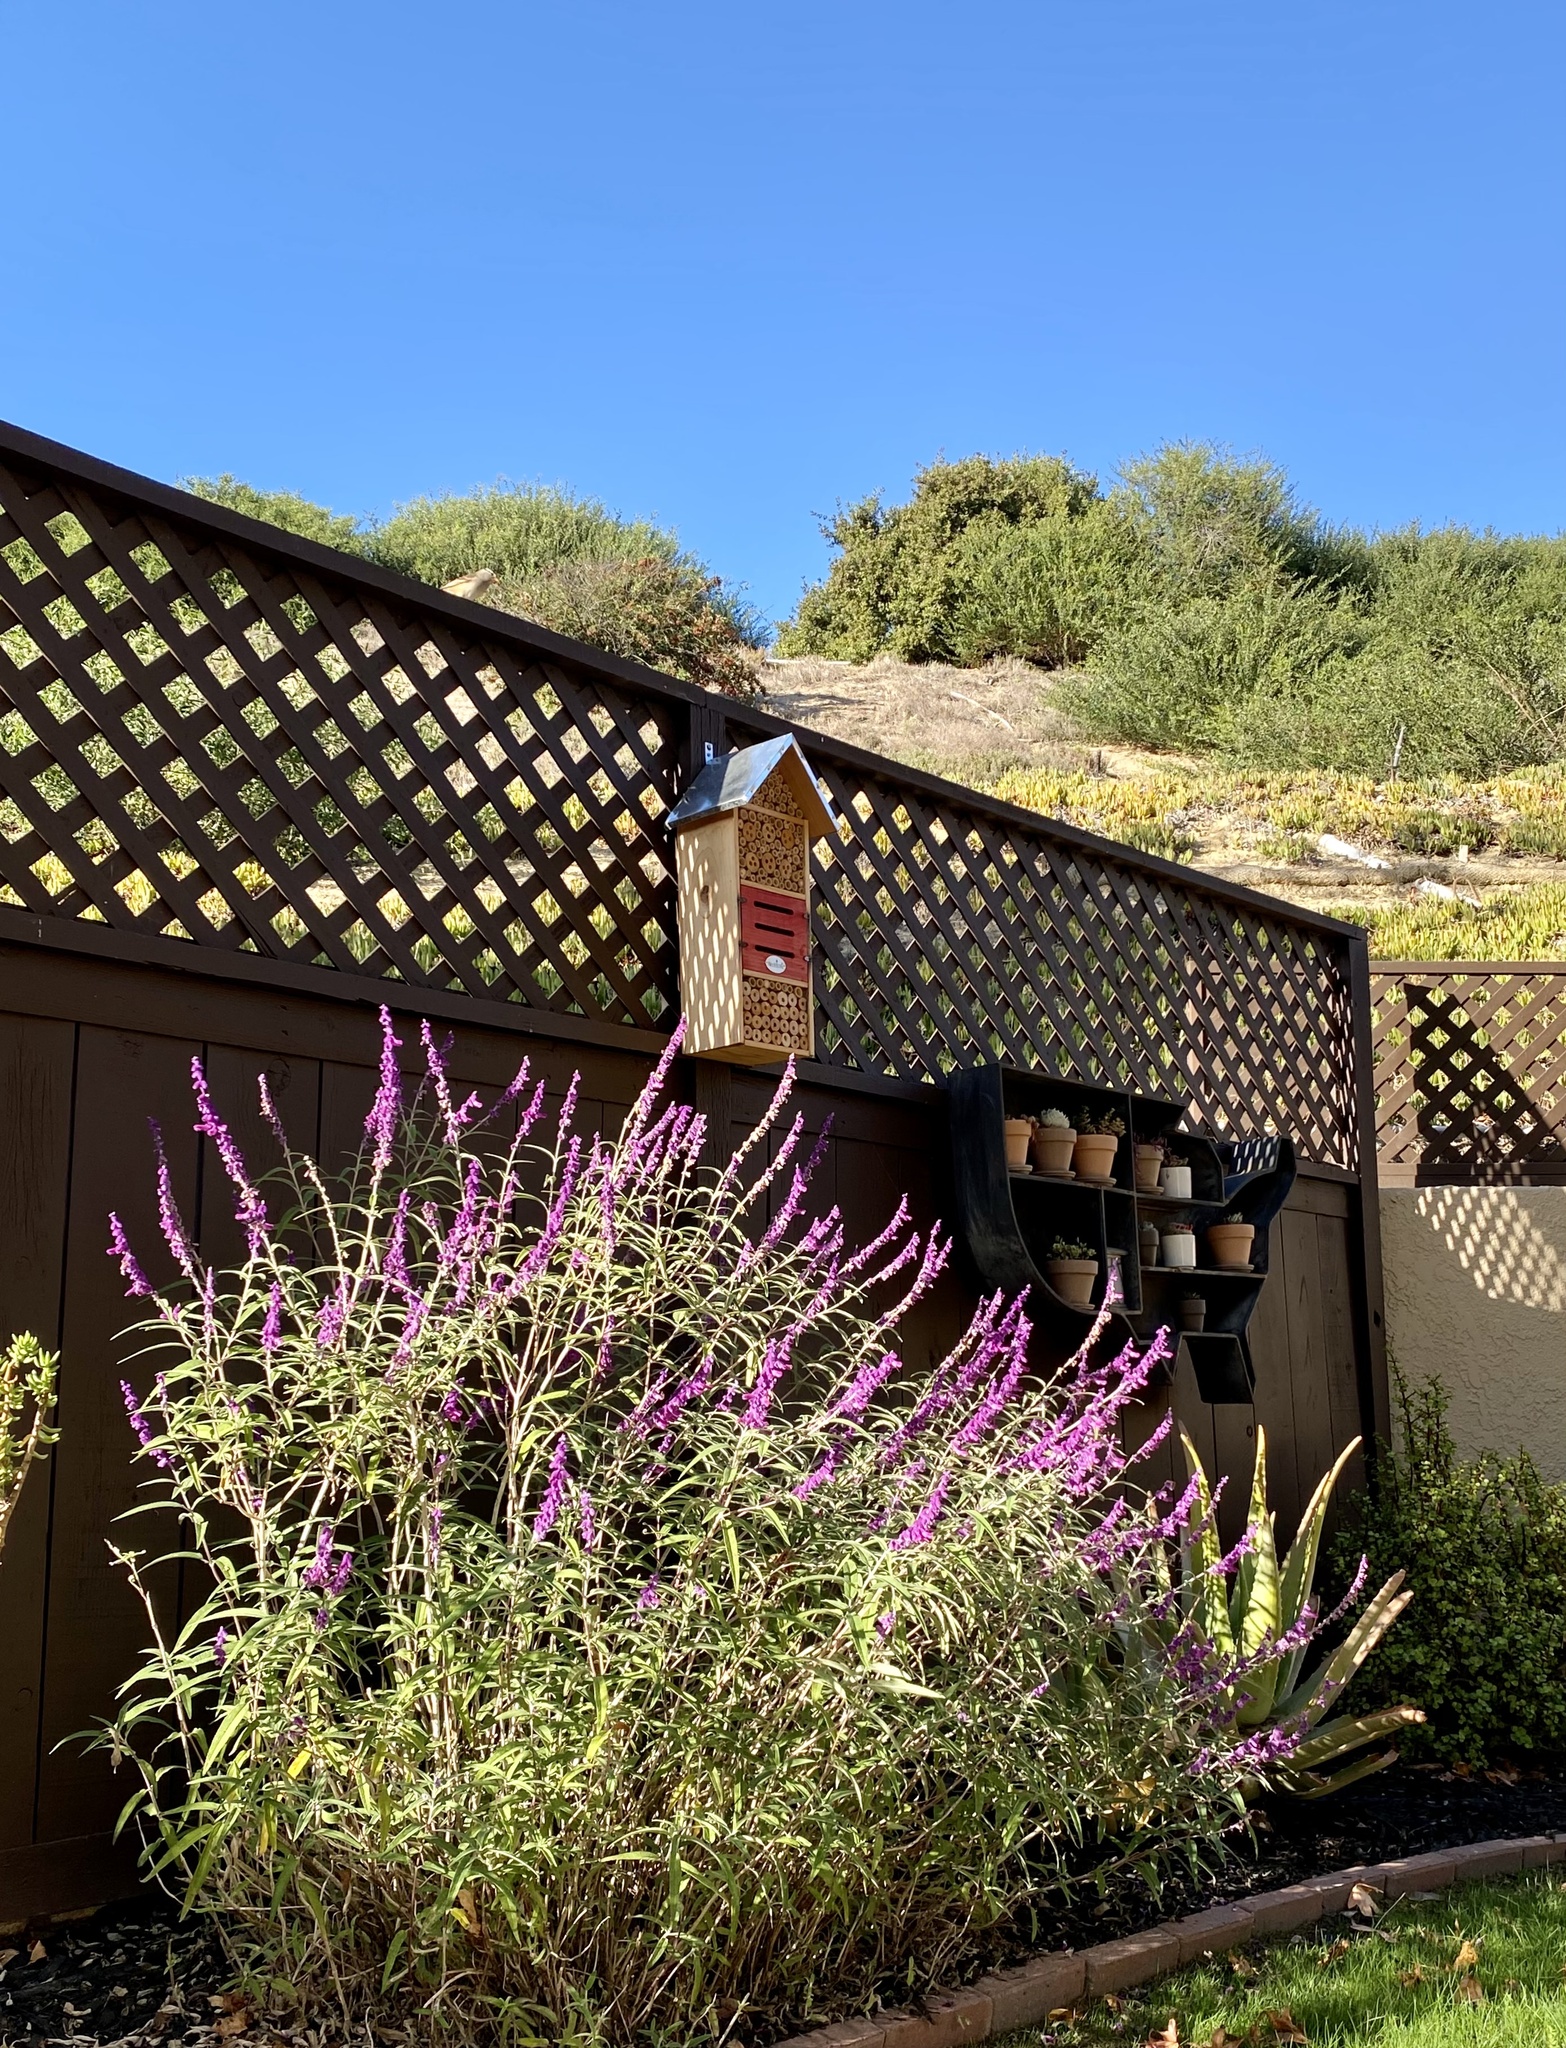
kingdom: Animalia
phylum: Chordata
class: Aves
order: Passeriformes
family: Passerellidae
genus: Zonotrichia
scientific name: Zonotrichia leucophrys
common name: White-crowned sparrow
